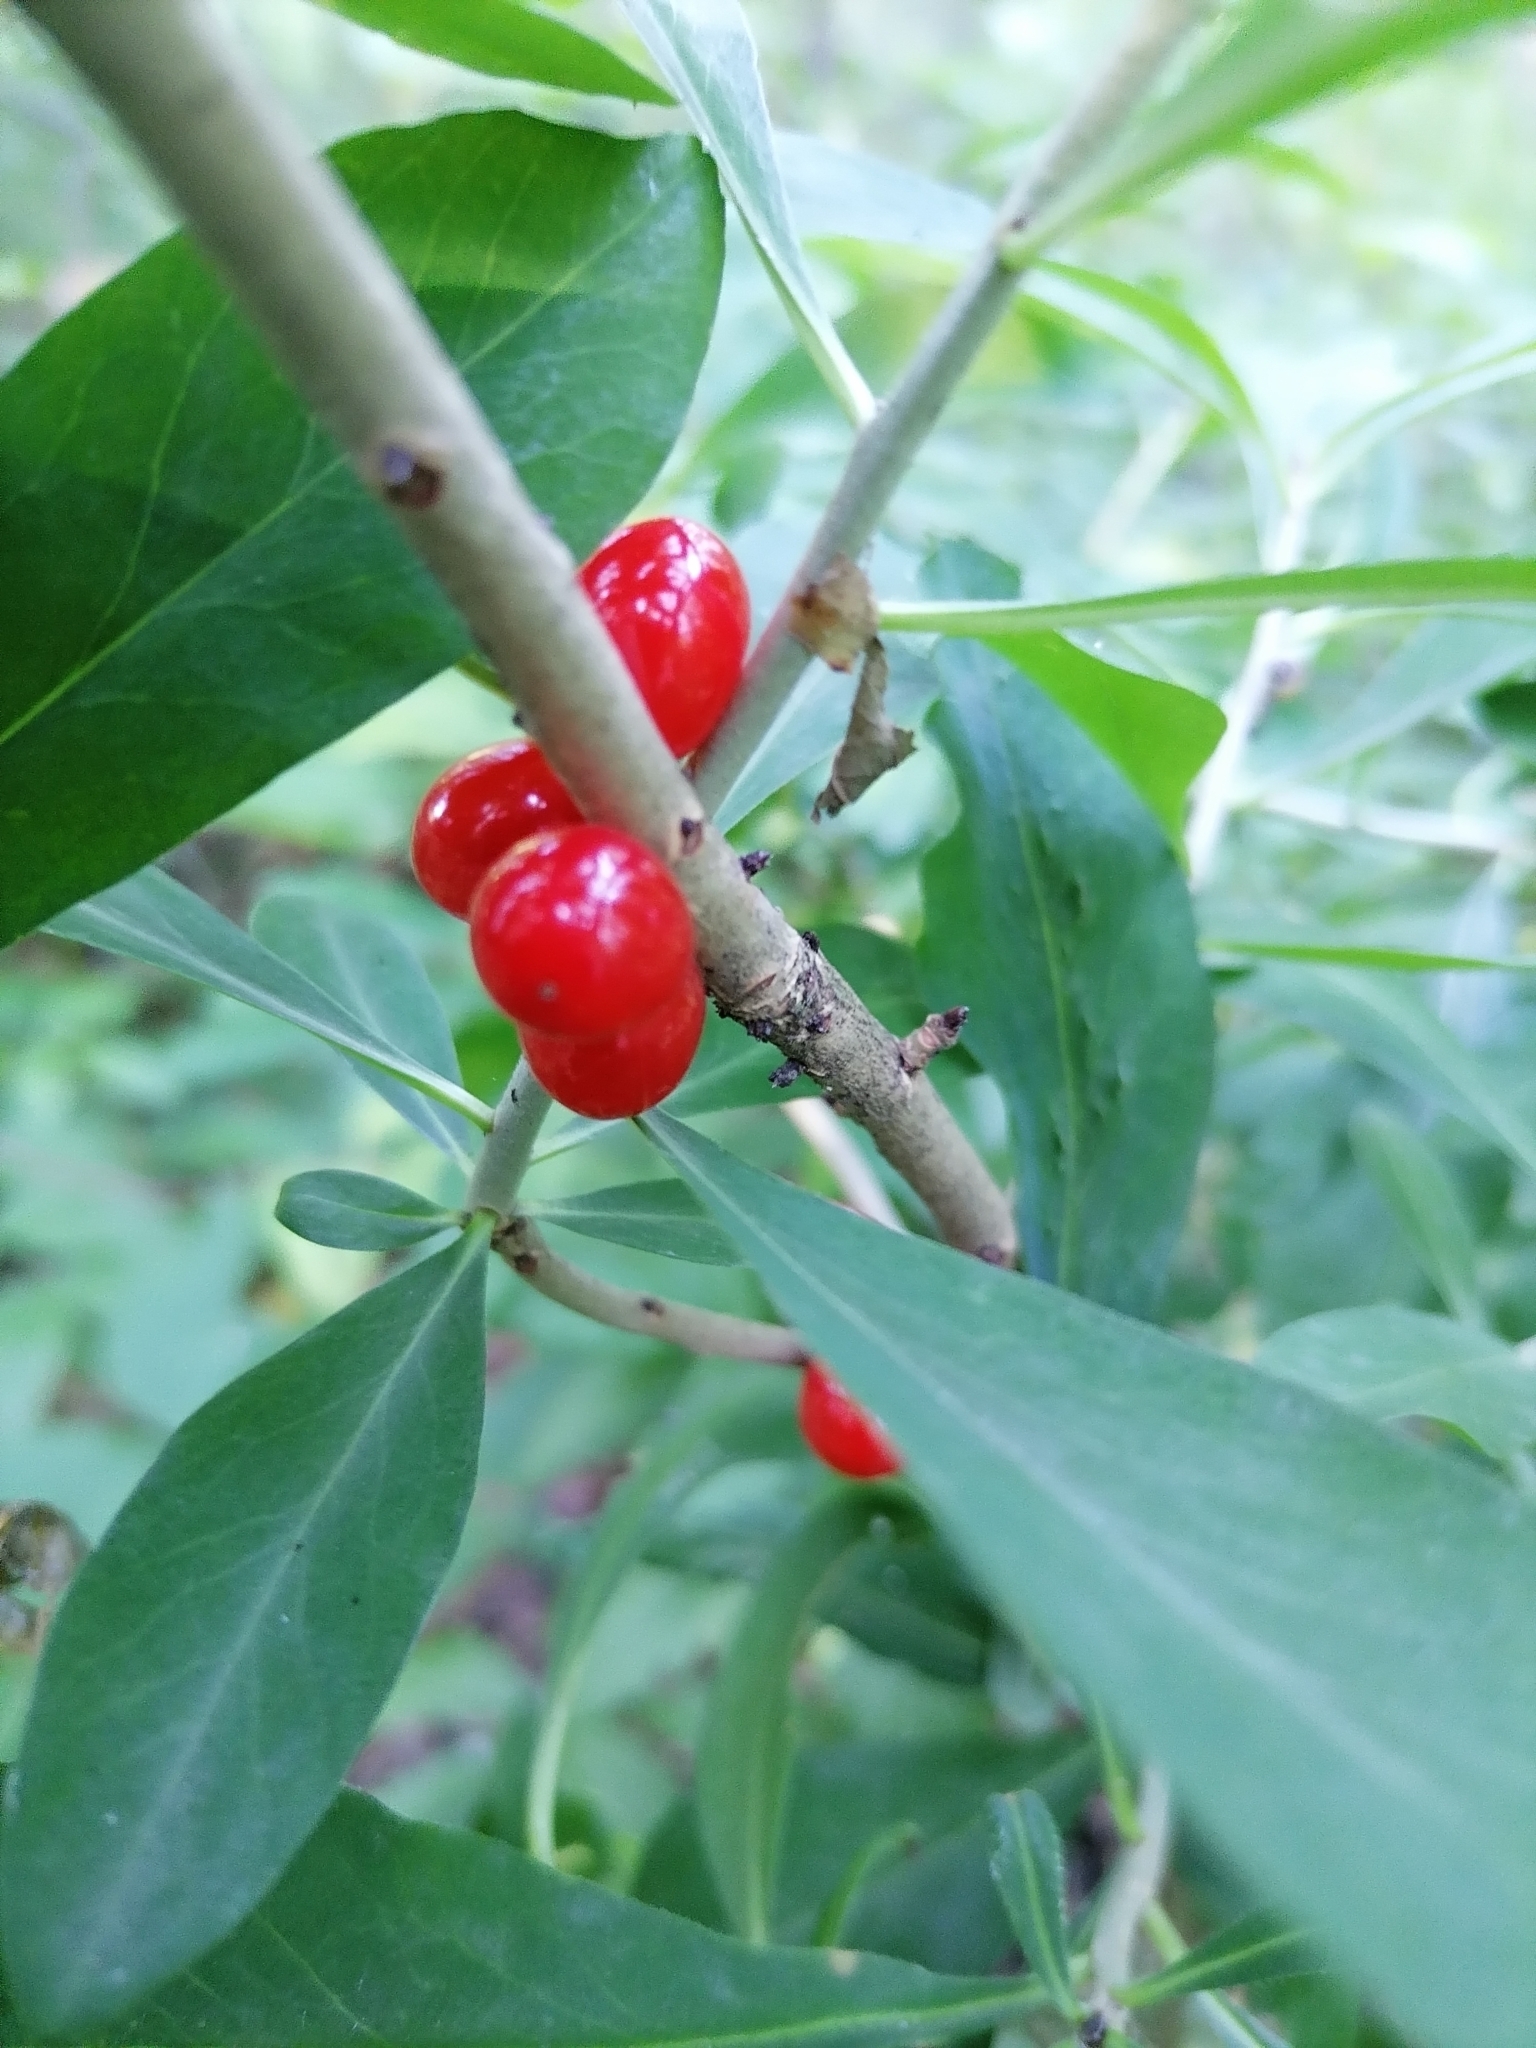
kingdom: Plantae
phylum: Tracheophyta
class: Magnoliopsida
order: Malvales
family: Thymelaeaceae
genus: Daphne
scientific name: Daphne mezereum
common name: Mezereon
